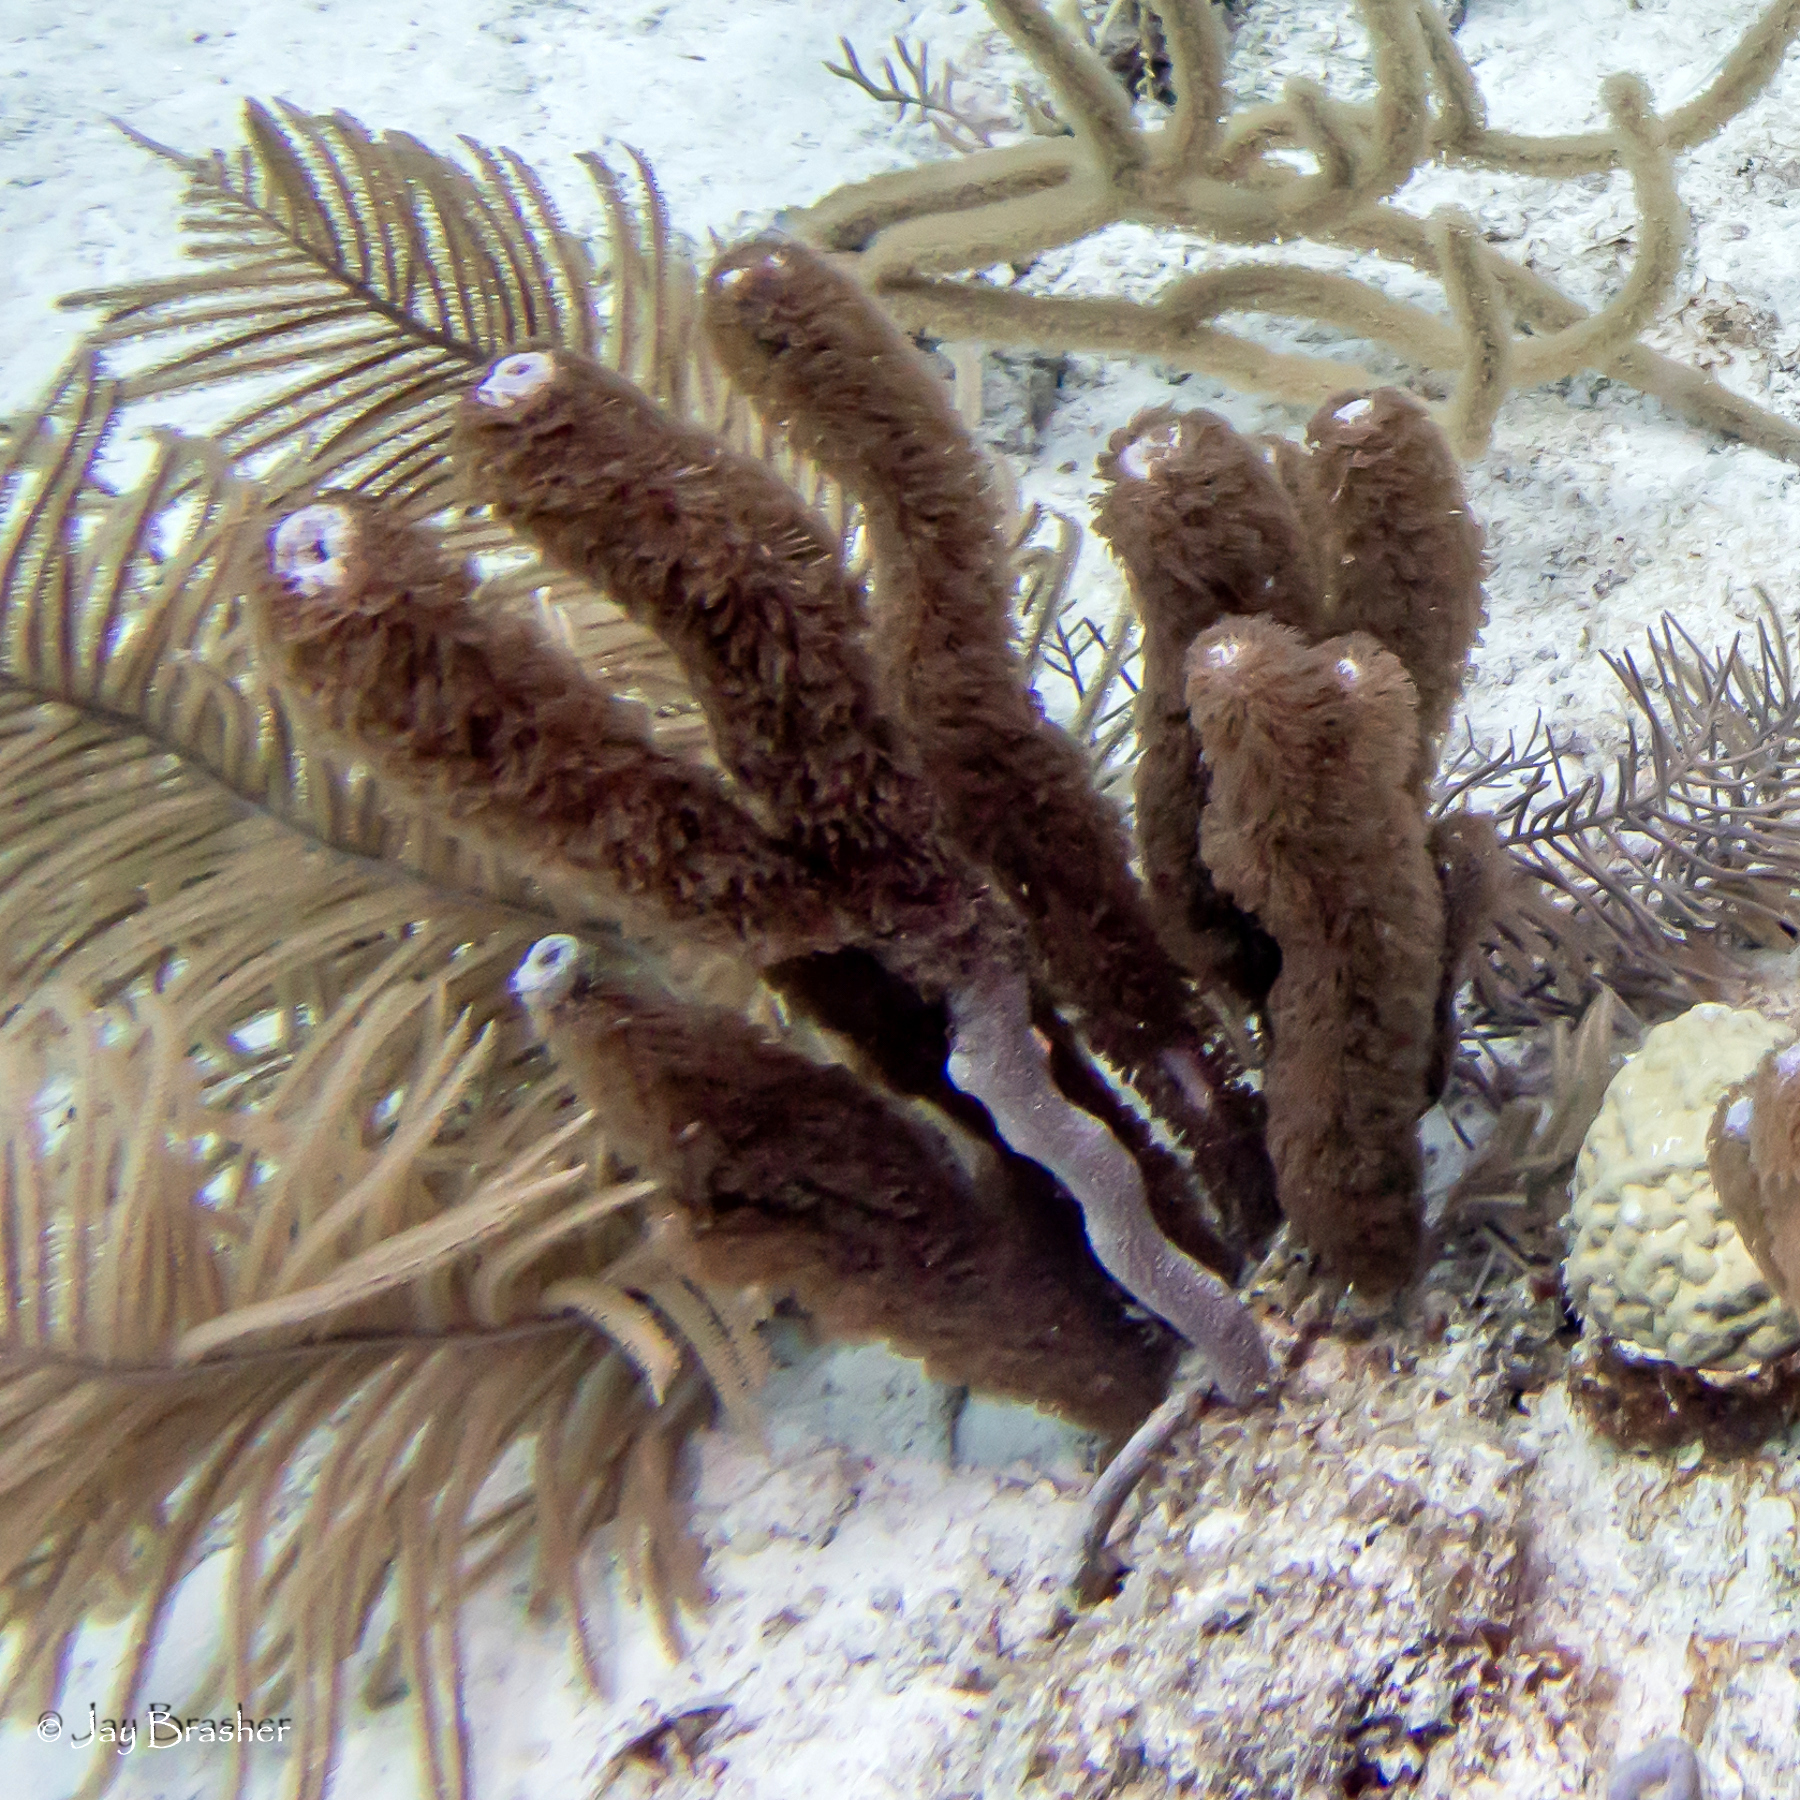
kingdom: Animalia
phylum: Cnidaria
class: Anthozoa
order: Scleractinia
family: Poritidae
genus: Porites
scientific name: Porites astreoides
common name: Mustard hill coral
